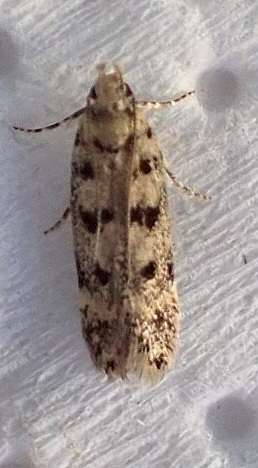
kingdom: Animalia
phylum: Arthropoda
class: Insecta
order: Lepidoptera
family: Gelechiidae
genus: Bryotropha
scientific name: Bryotropha domestica
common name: House groundling
